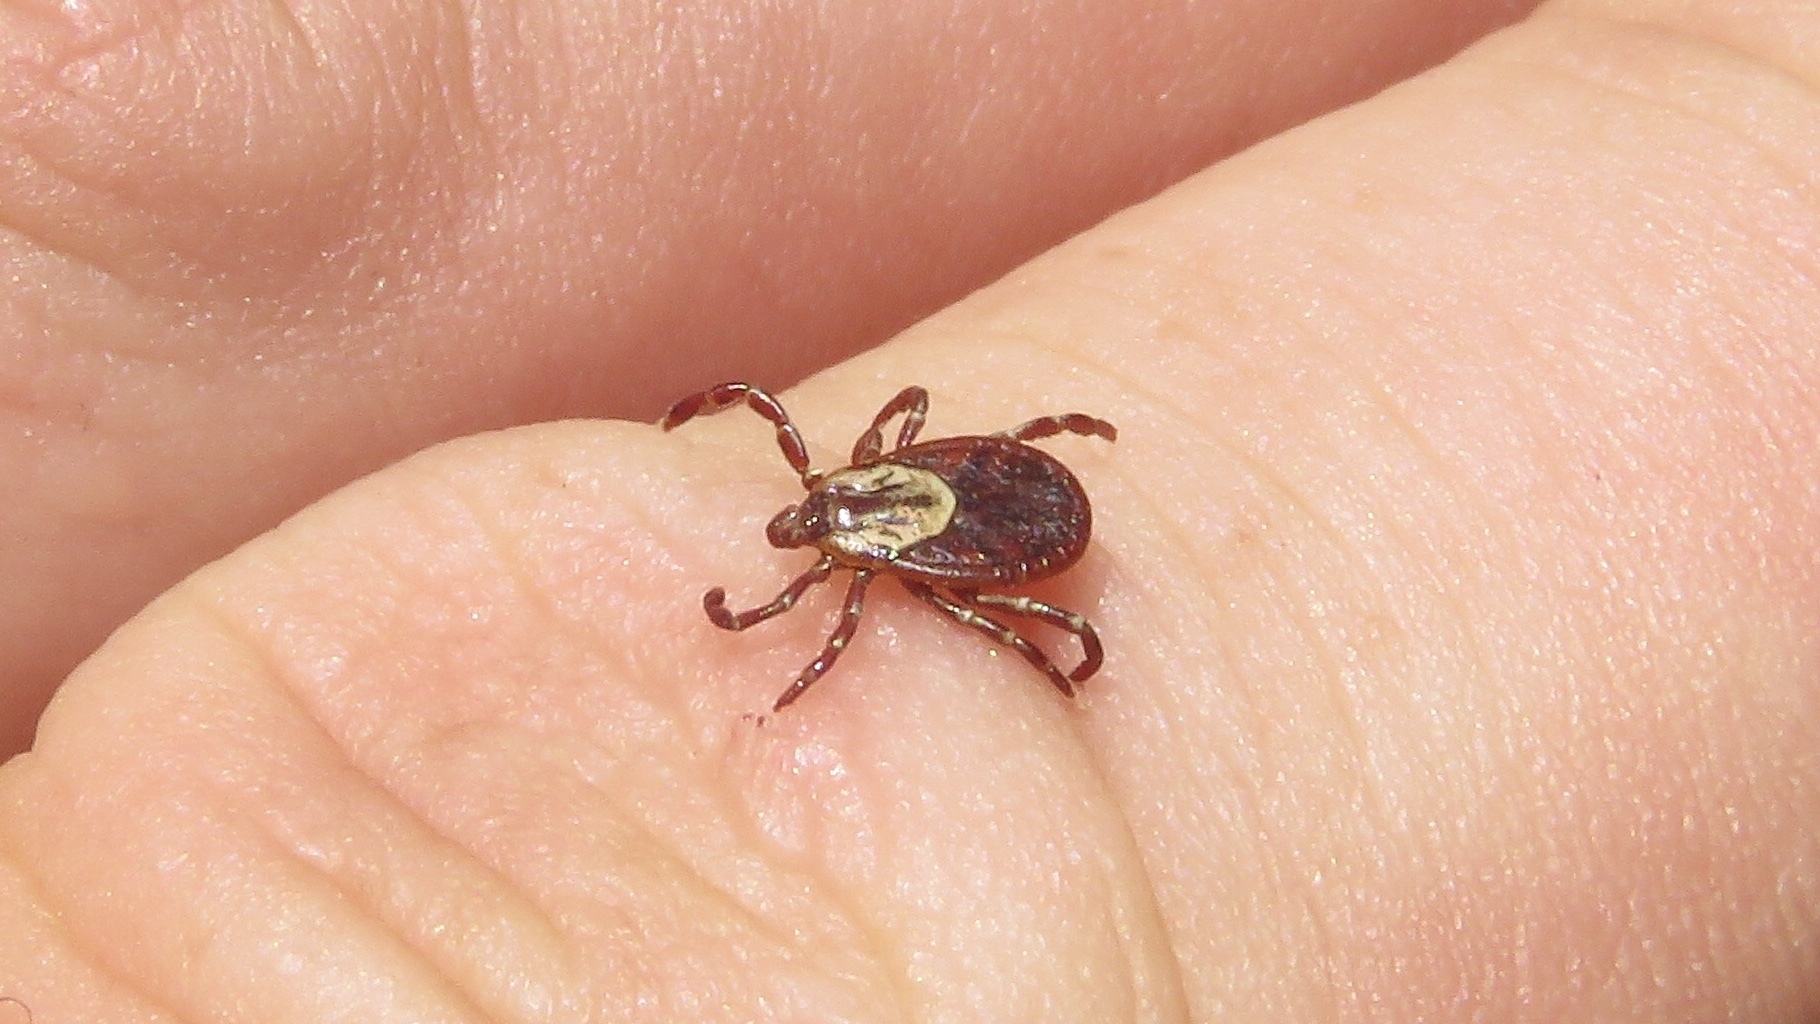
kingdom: Animalia
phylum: Arthropoda
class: Arachnida
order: Ixodida
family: Ixodidae
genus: Dermacentor
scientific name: Dermacentor variabilis
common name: American dog tick
